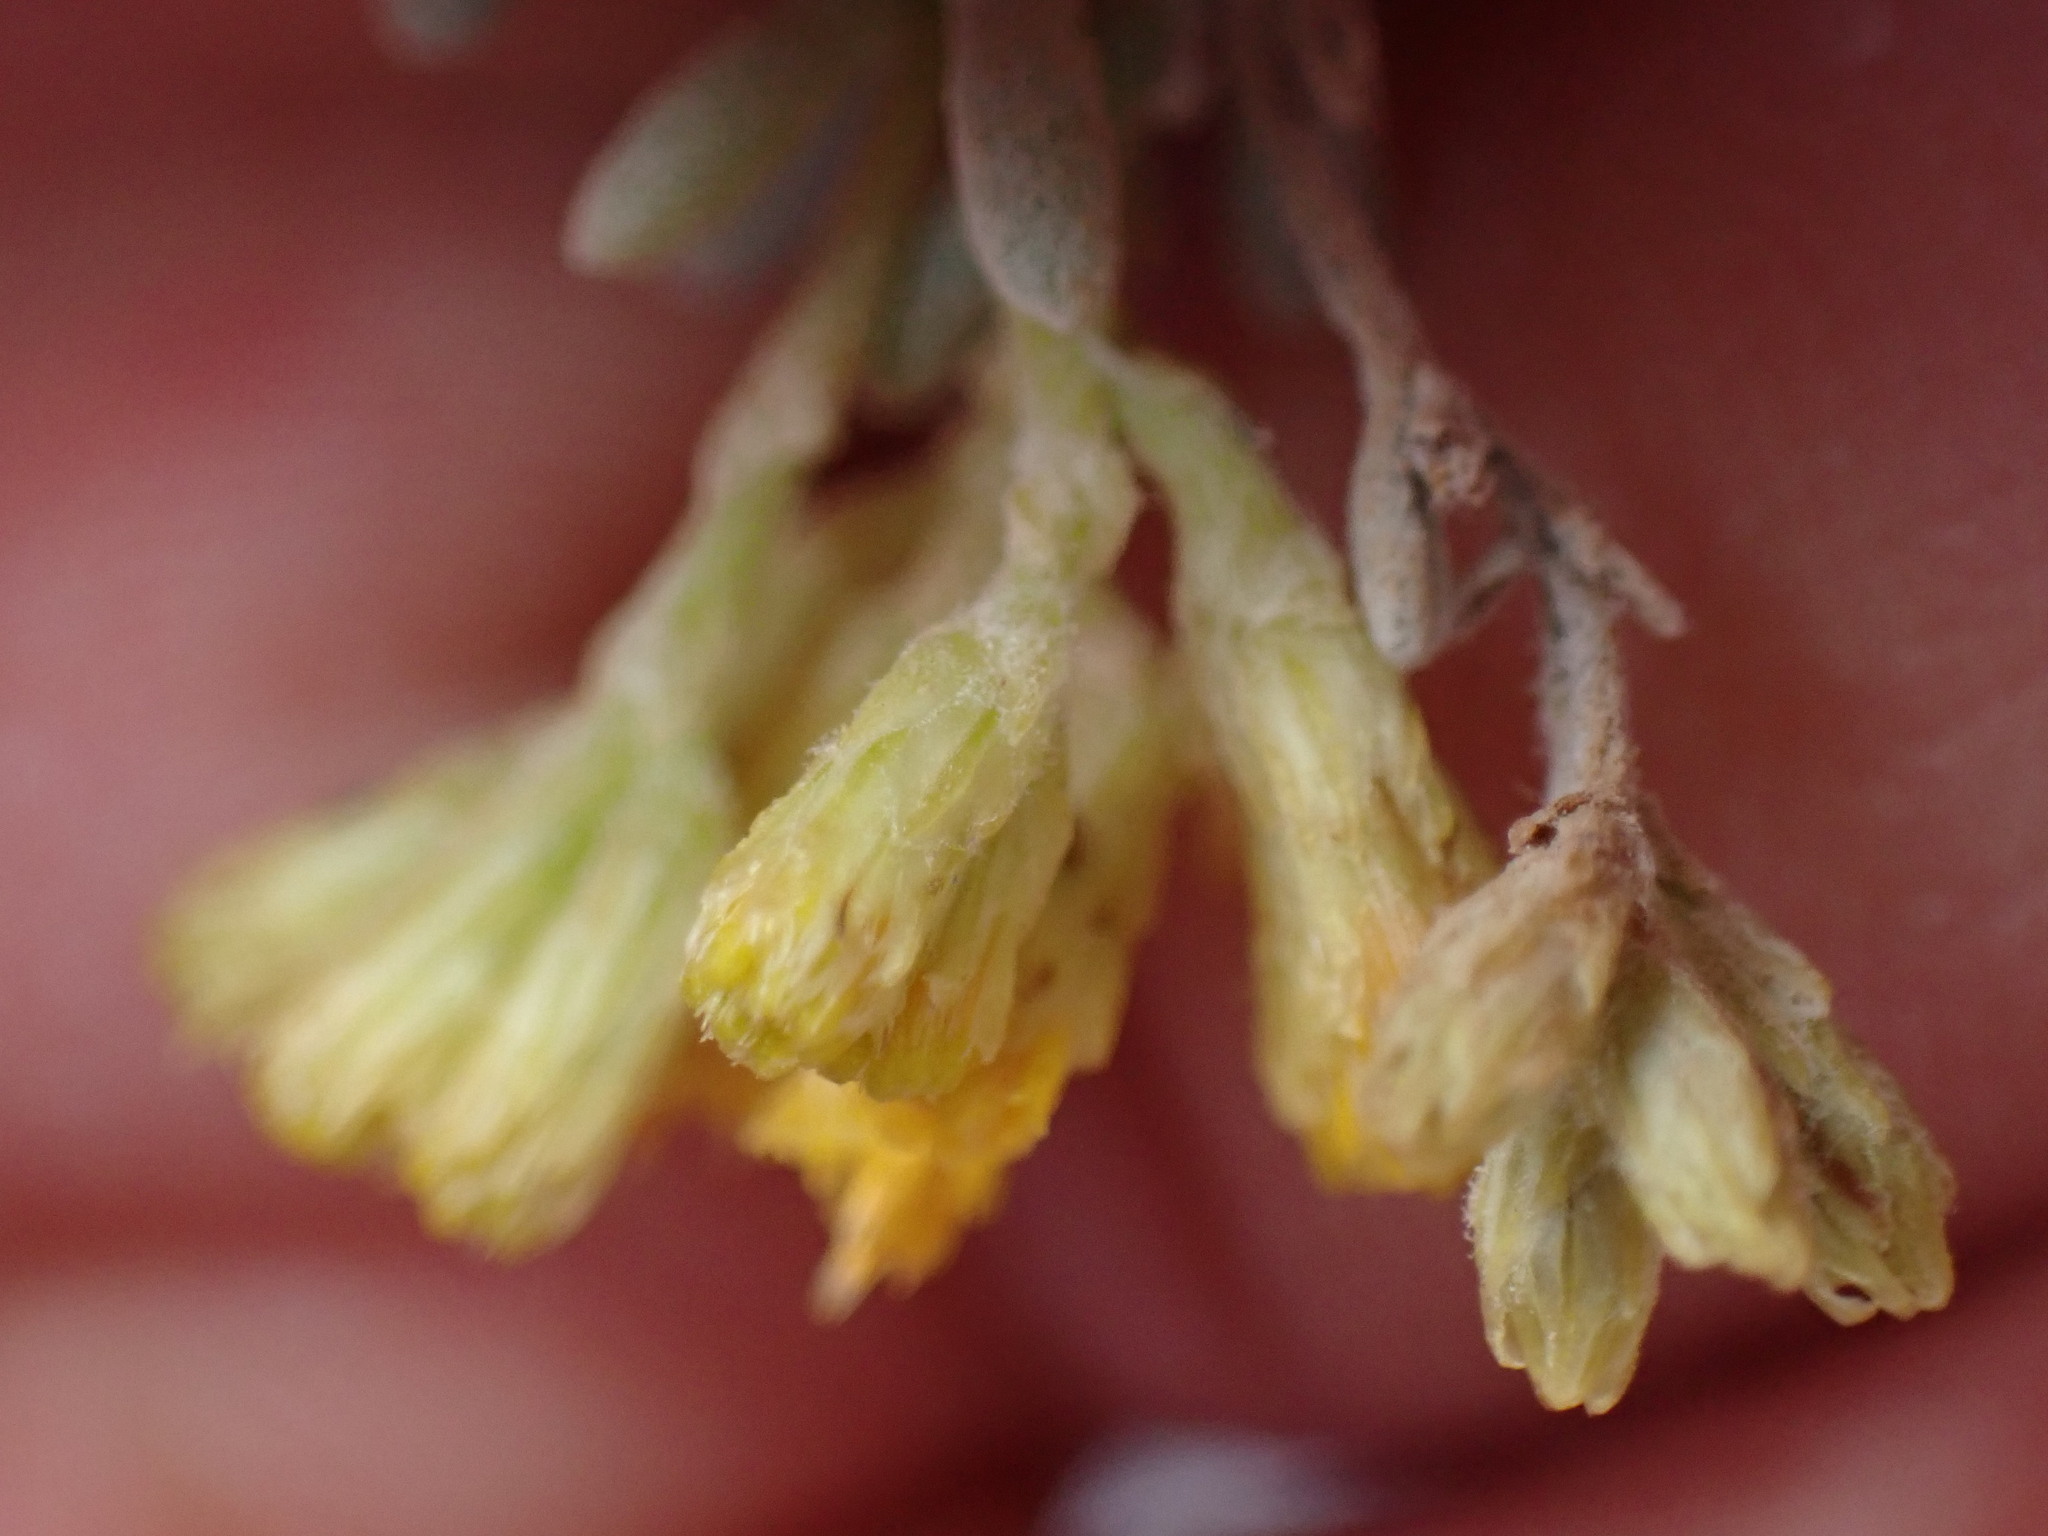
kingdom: Plantae
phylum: Tracheophyta
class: Magnoliopsida
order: Asterales
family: Asteraceae
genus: Schizogyne
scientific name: Schizogyne sericea
